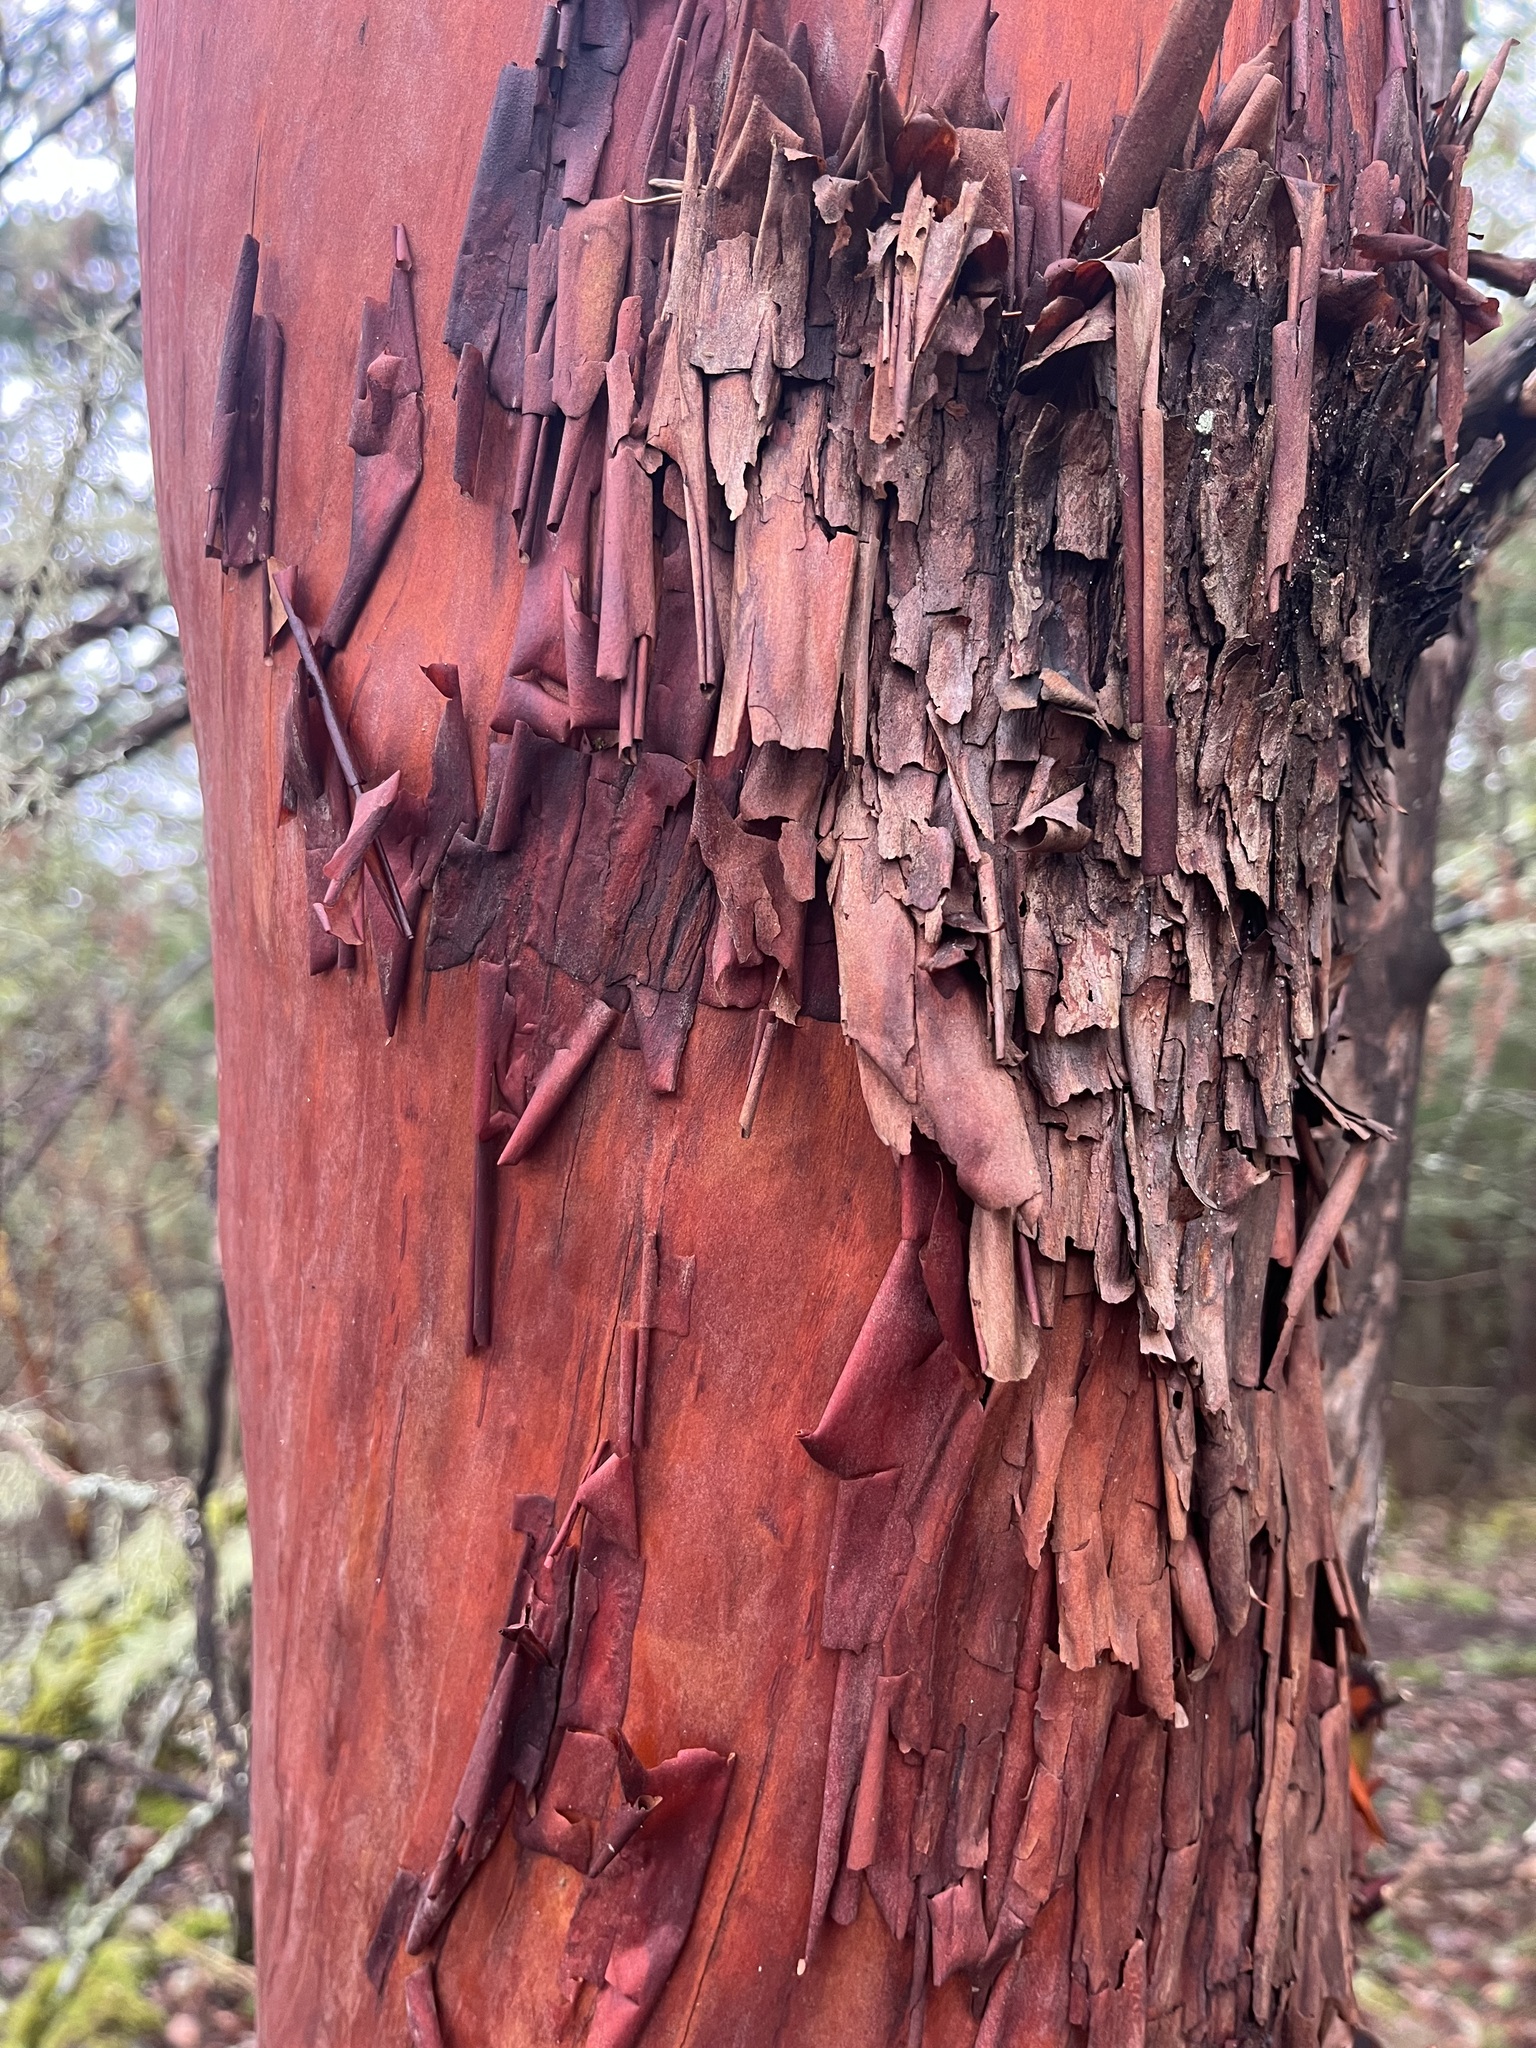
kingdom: Plantae
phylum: Tracheophyta
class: Magnoliopsida
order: Ericales
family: Ericaceae
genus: Arbutus
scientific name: Arbutus menziesii
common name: Pacific madrone
